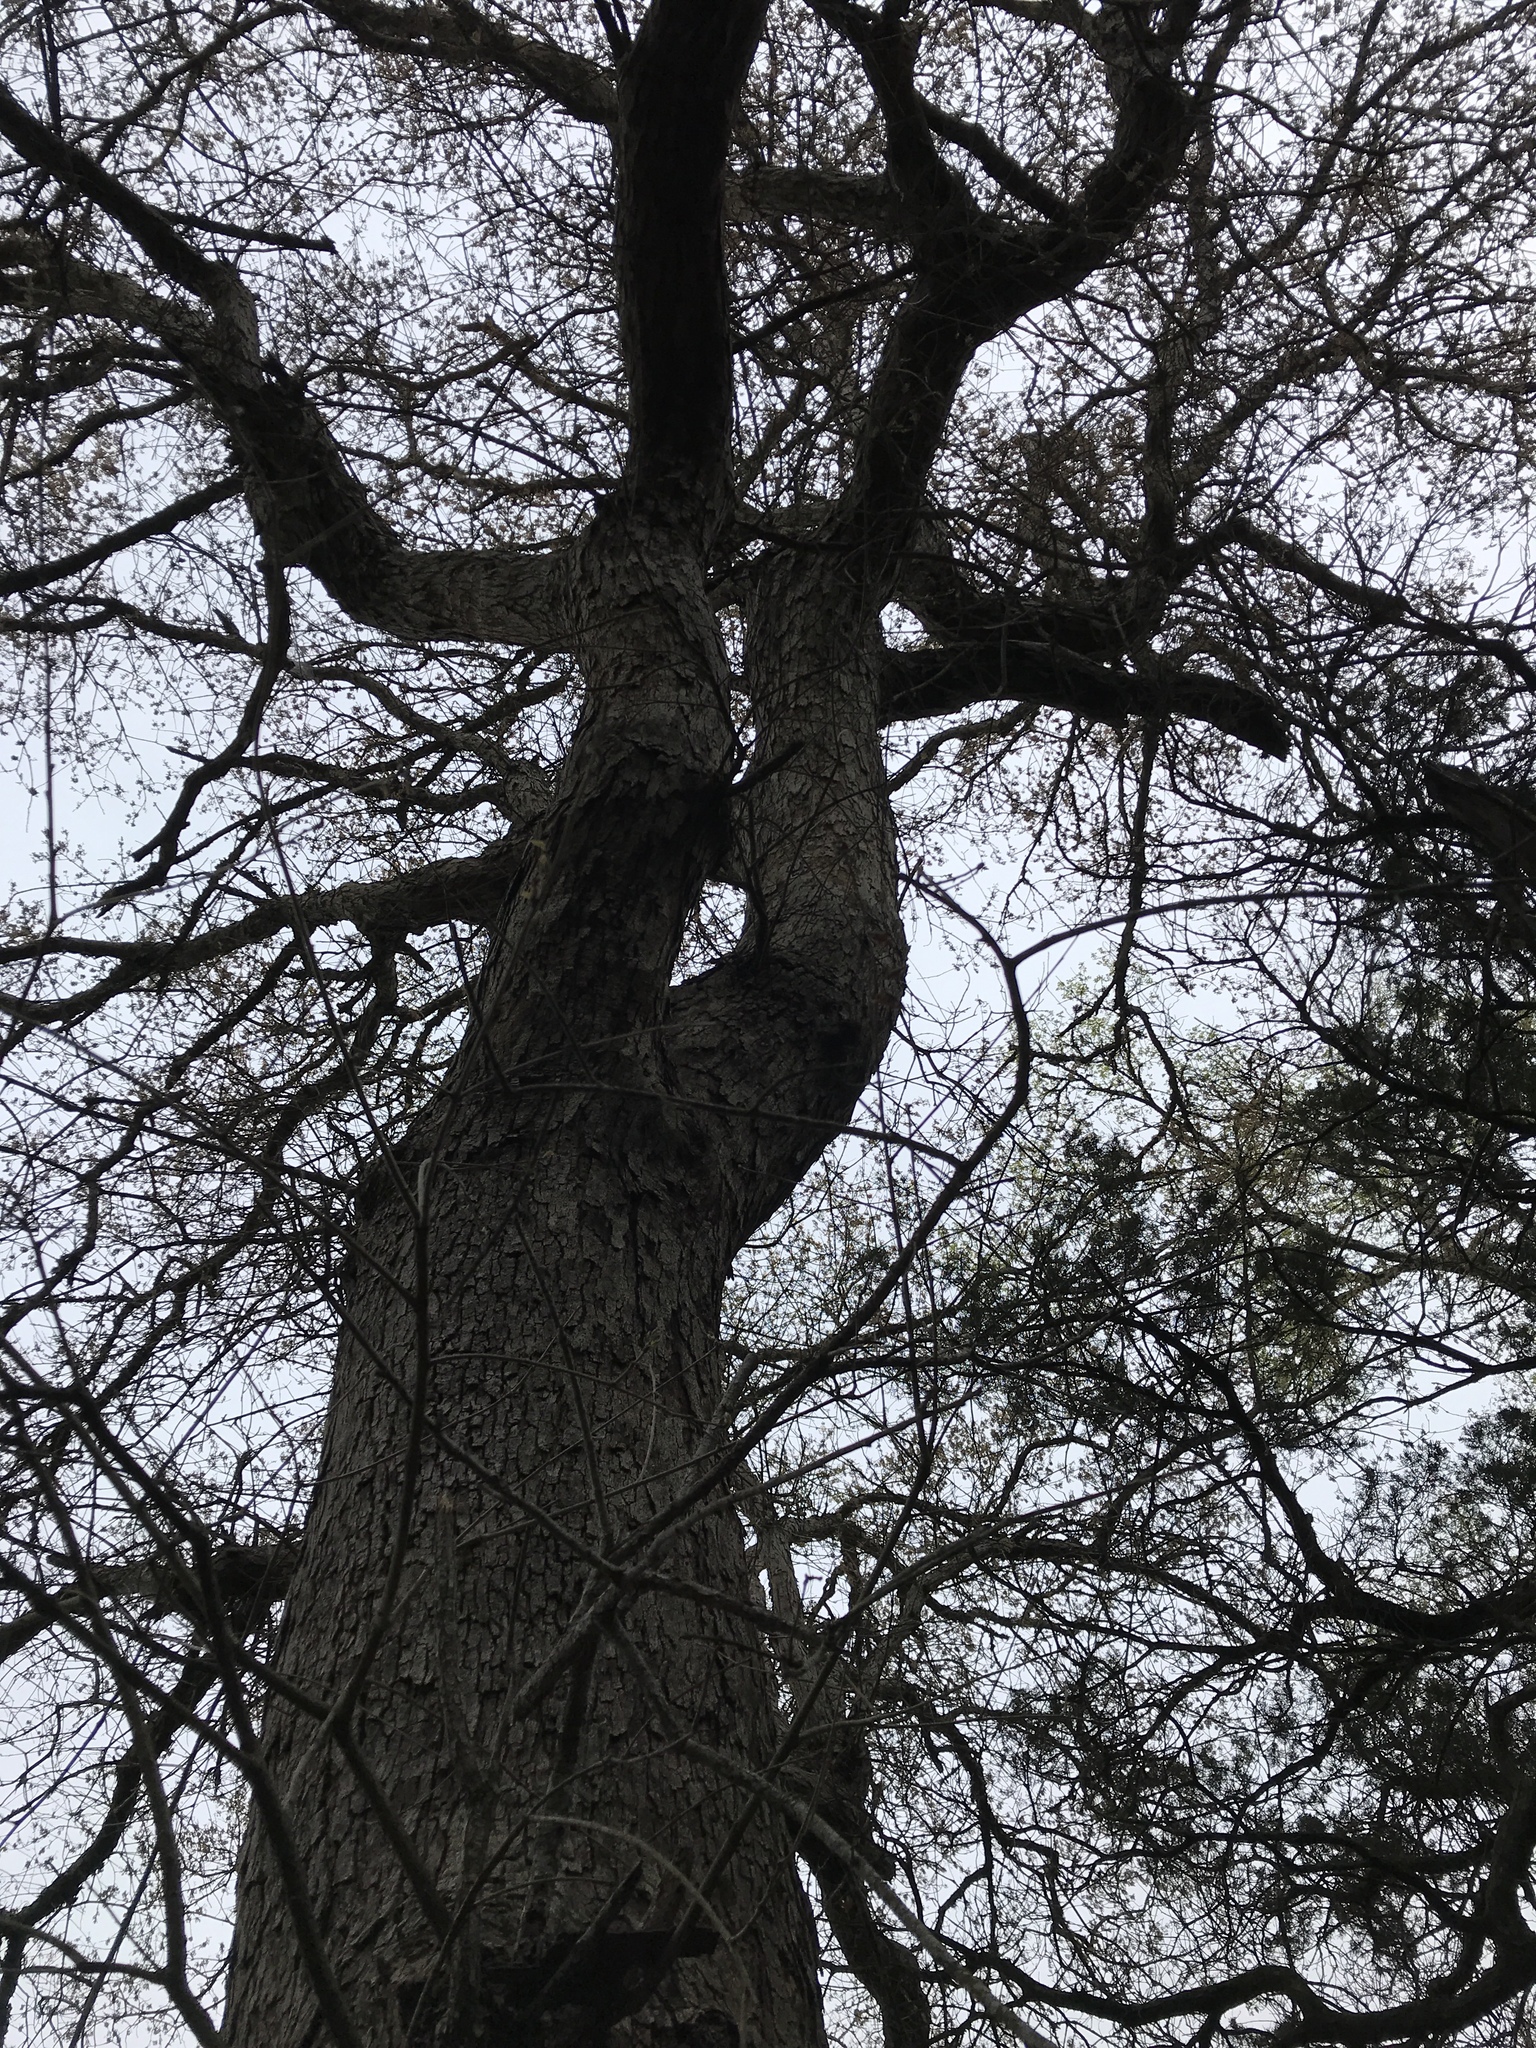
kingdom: Plantae
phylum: Tracheophyta
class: Magnoliopsida
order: Fagales
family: Fagaceae
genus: Quercus
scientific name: Quercus sinuata
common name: Durand oak
